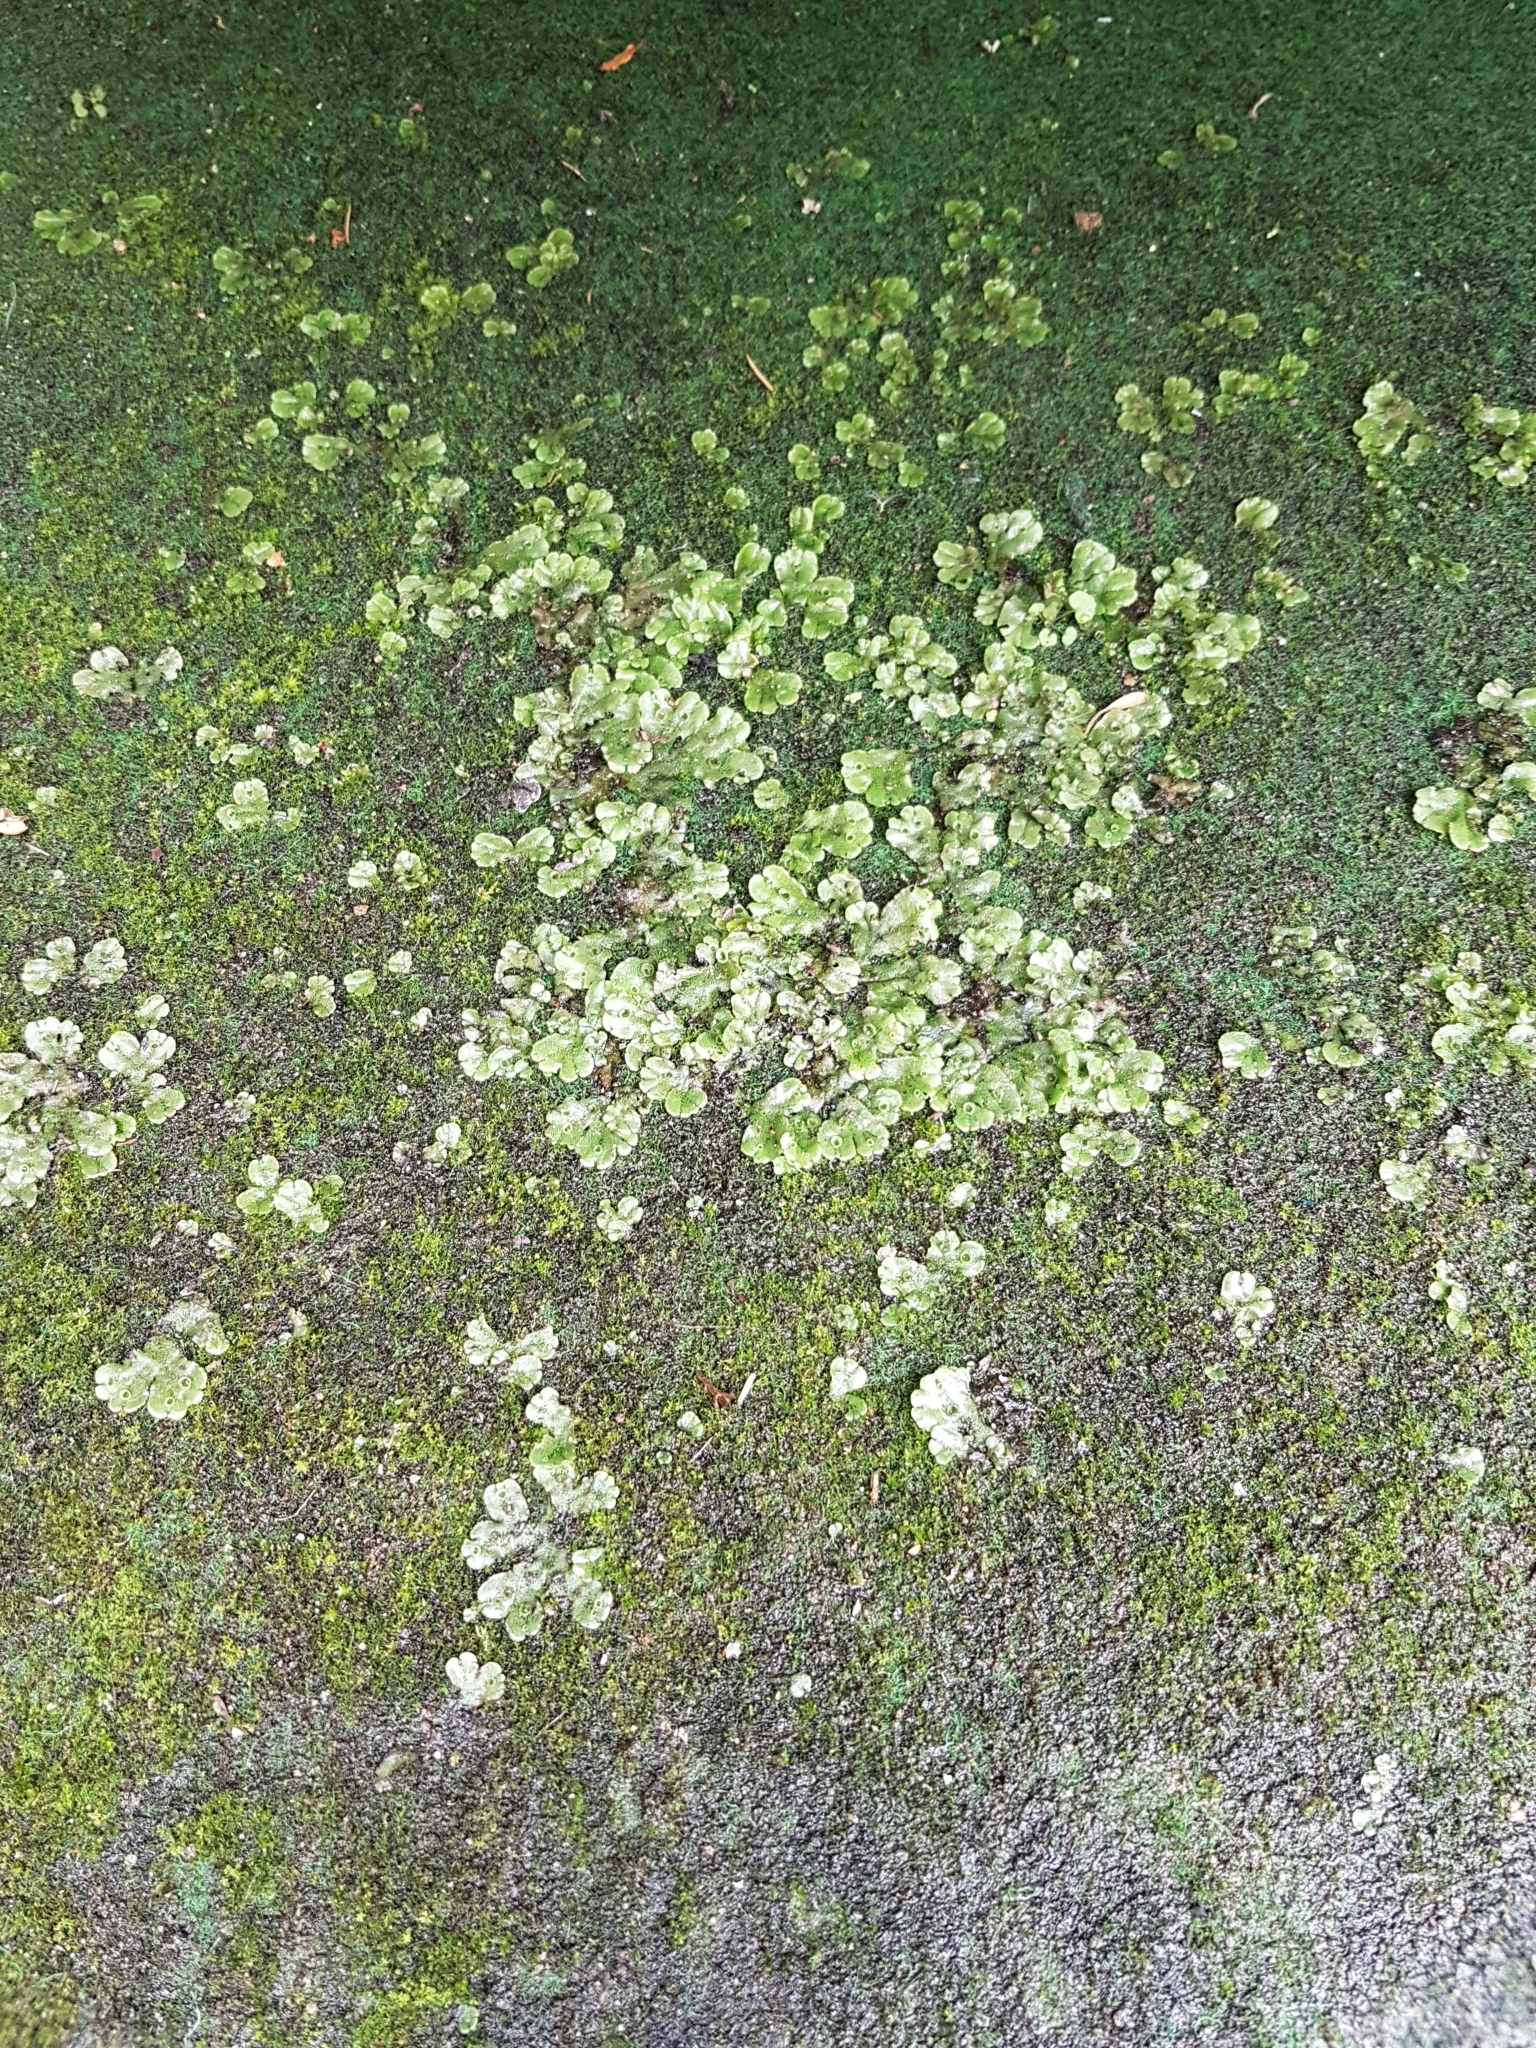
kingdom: Plantae
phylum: Marchantiophyta
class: Marchantiopsida
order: Marchantiales
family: Marchantiaceae
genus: Marchantia
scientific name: Marchantia polymorpha
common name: Common liverwort
